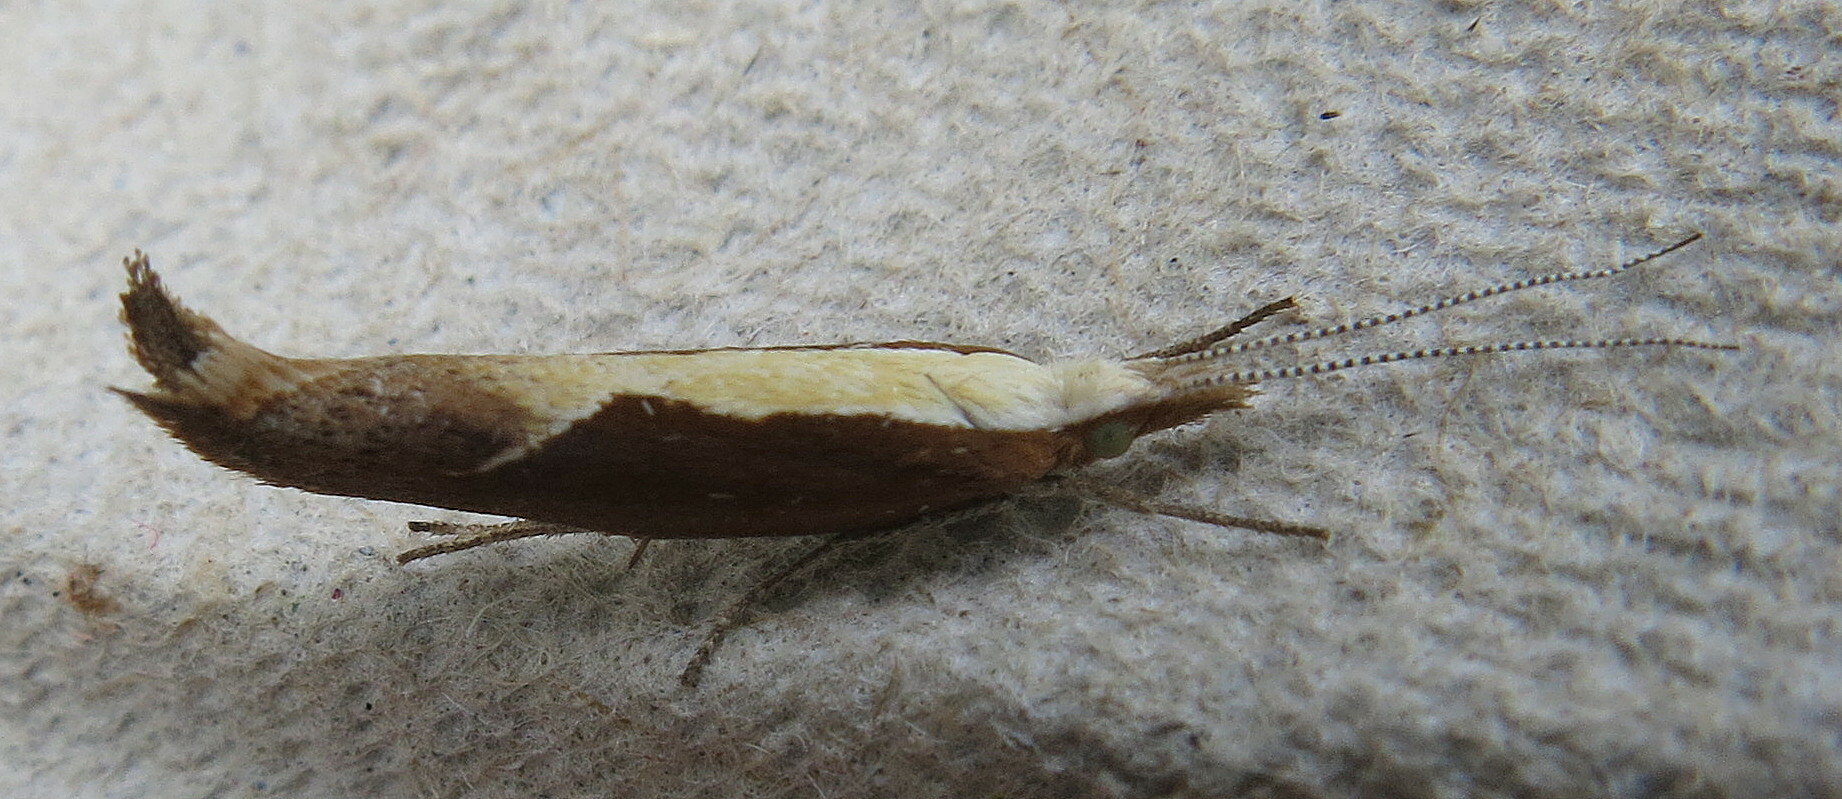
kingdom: Animalia
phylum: Arthropoda
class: Insecta
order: Lepidoptera
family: Ypsolophidae
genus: Ypsolopha
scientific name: Ypsolopha dentella
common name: Honeysuckle moth
